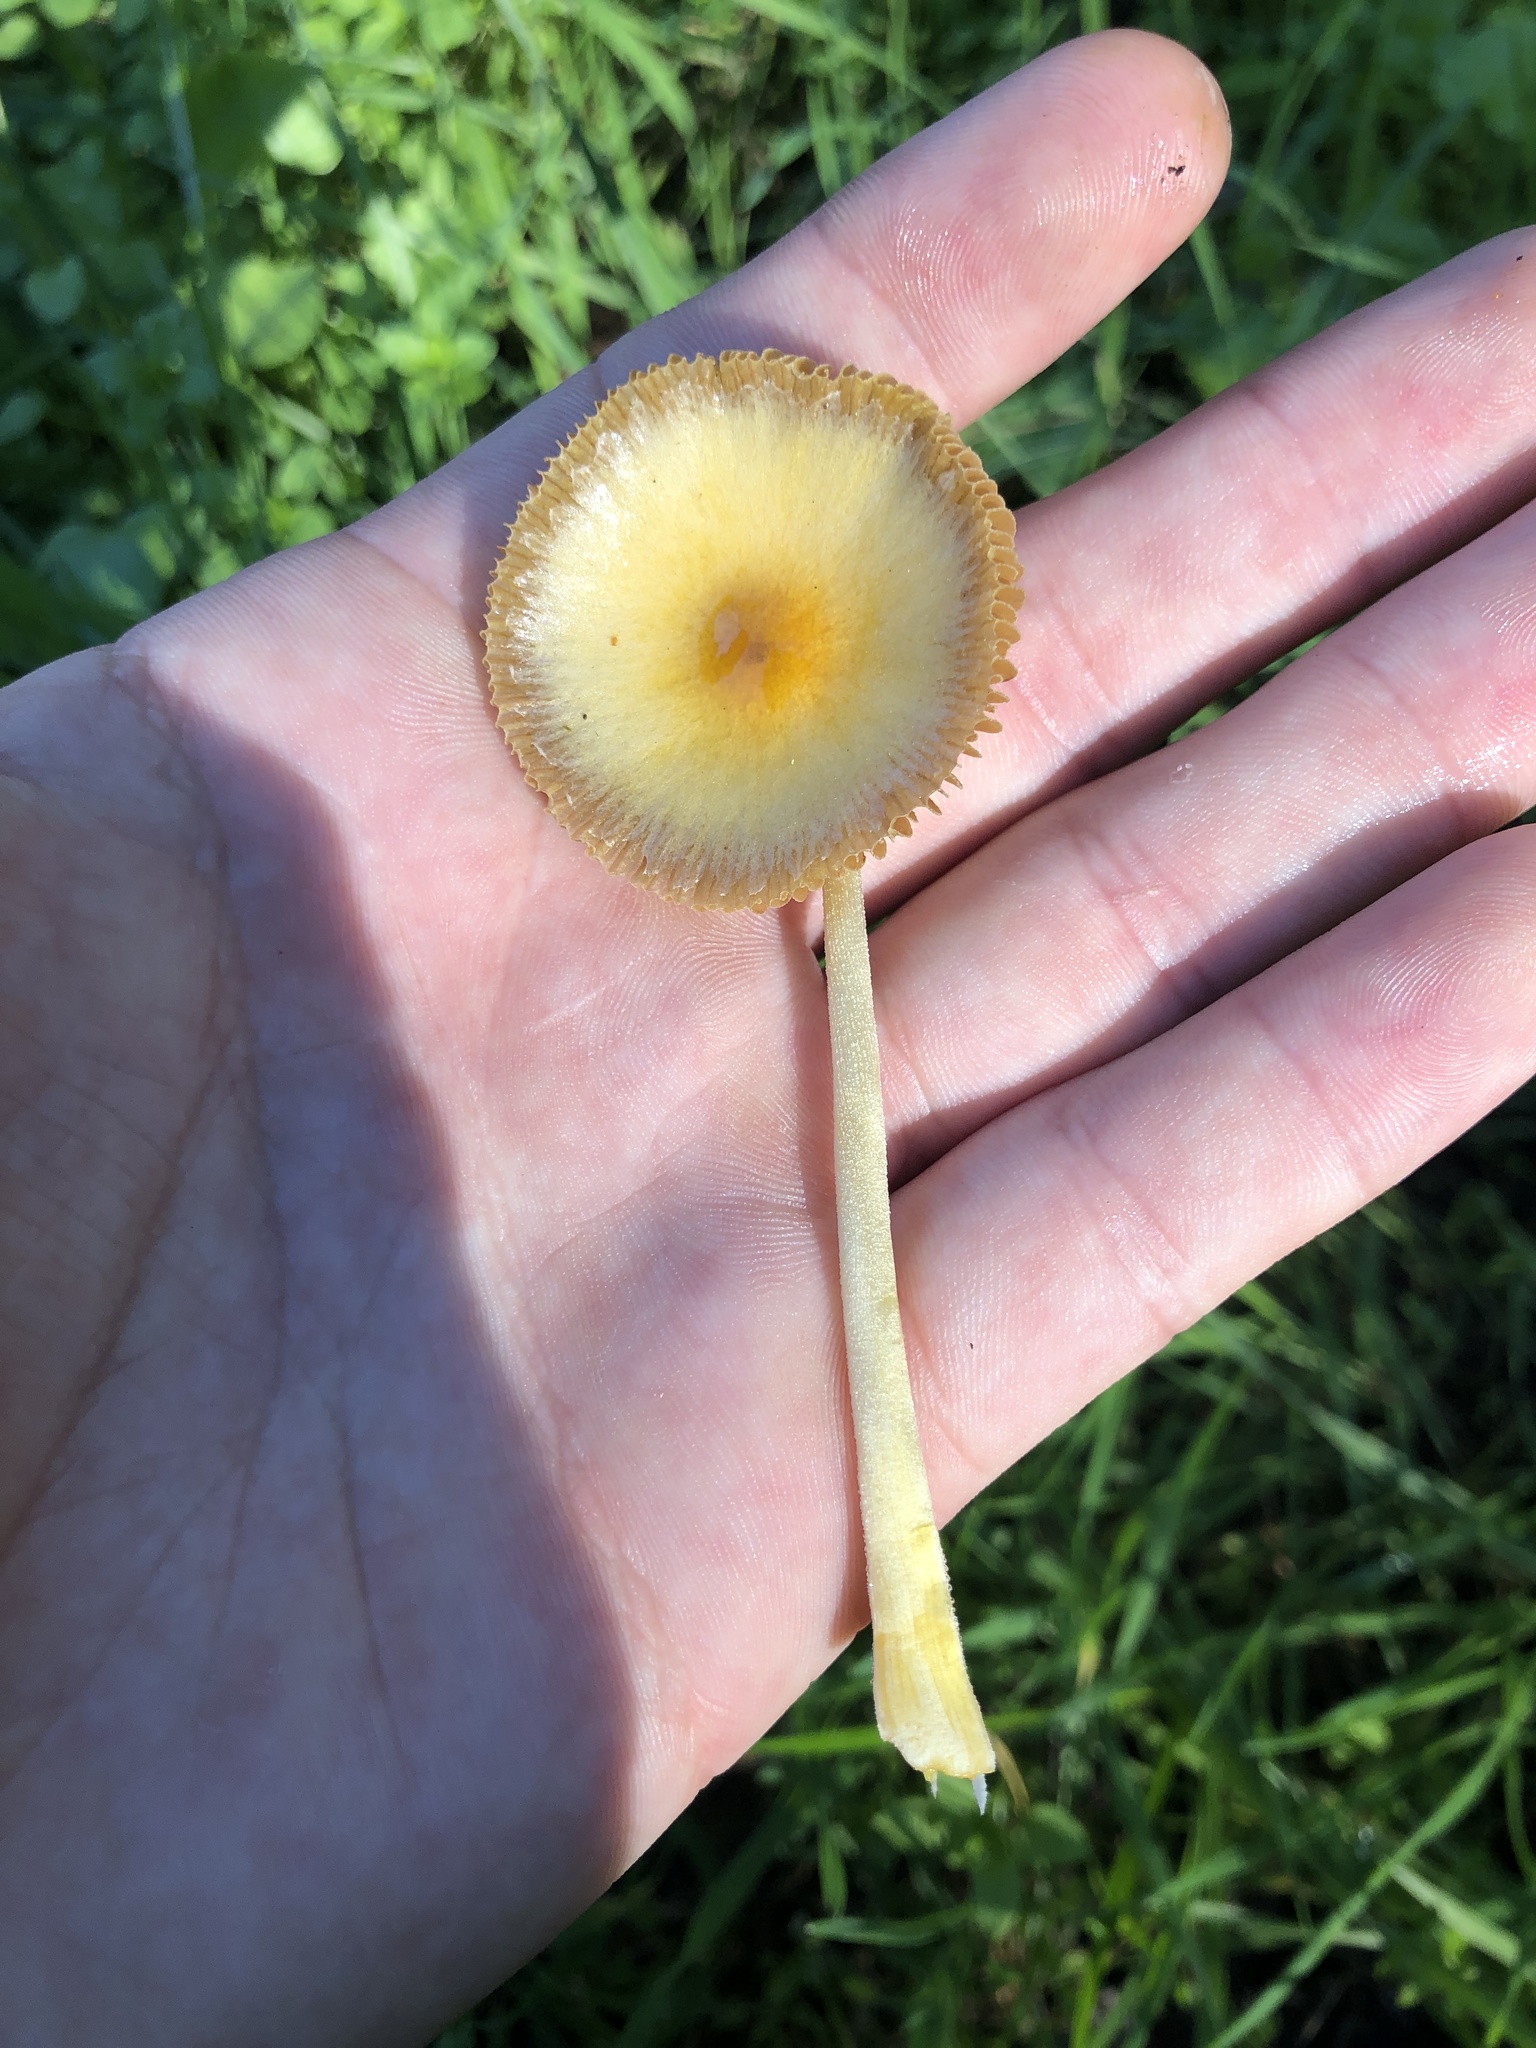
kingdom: Fungi
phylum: Basidiomycota
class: Agaricomycetes
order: Agaricales
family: Bolbitiaceae
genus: Bolbitius
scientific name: Bolbitius titubans
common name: Yellow fieldcap
